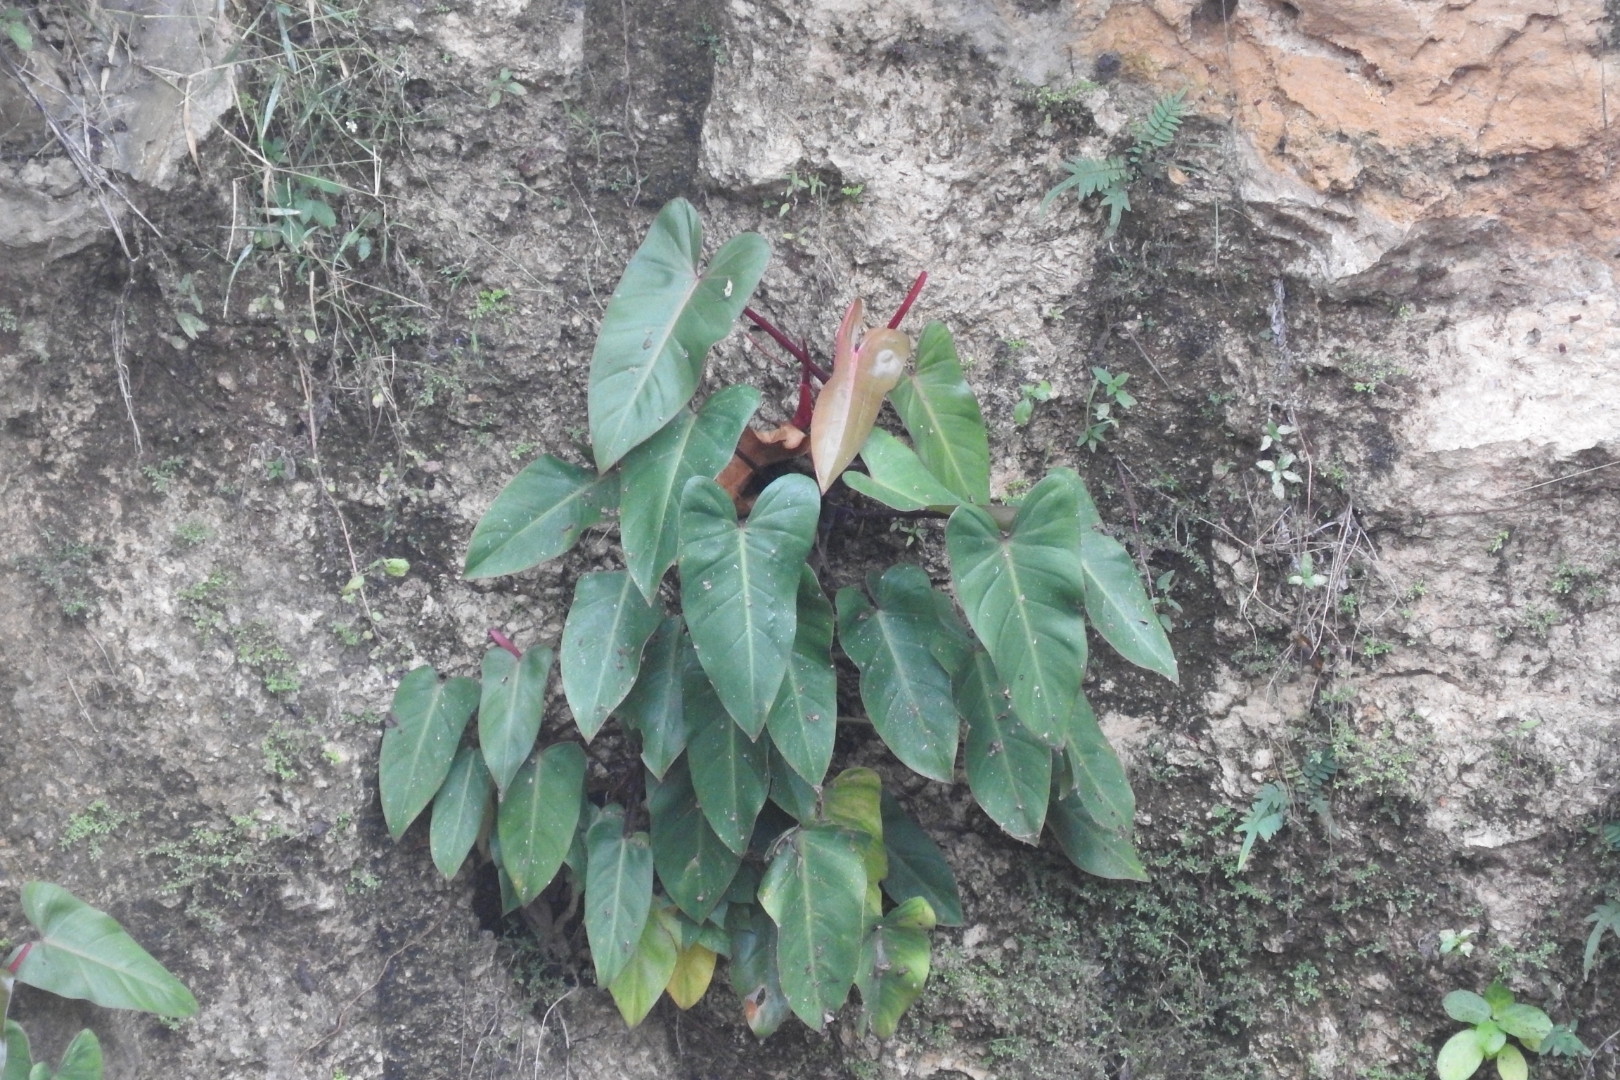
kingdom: Plantae
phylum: Tracheophyta
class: Liliopsida
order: Alismatales
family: Araceae
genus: Philodendron
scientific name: Philodendron erubescens
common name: Philodendron
